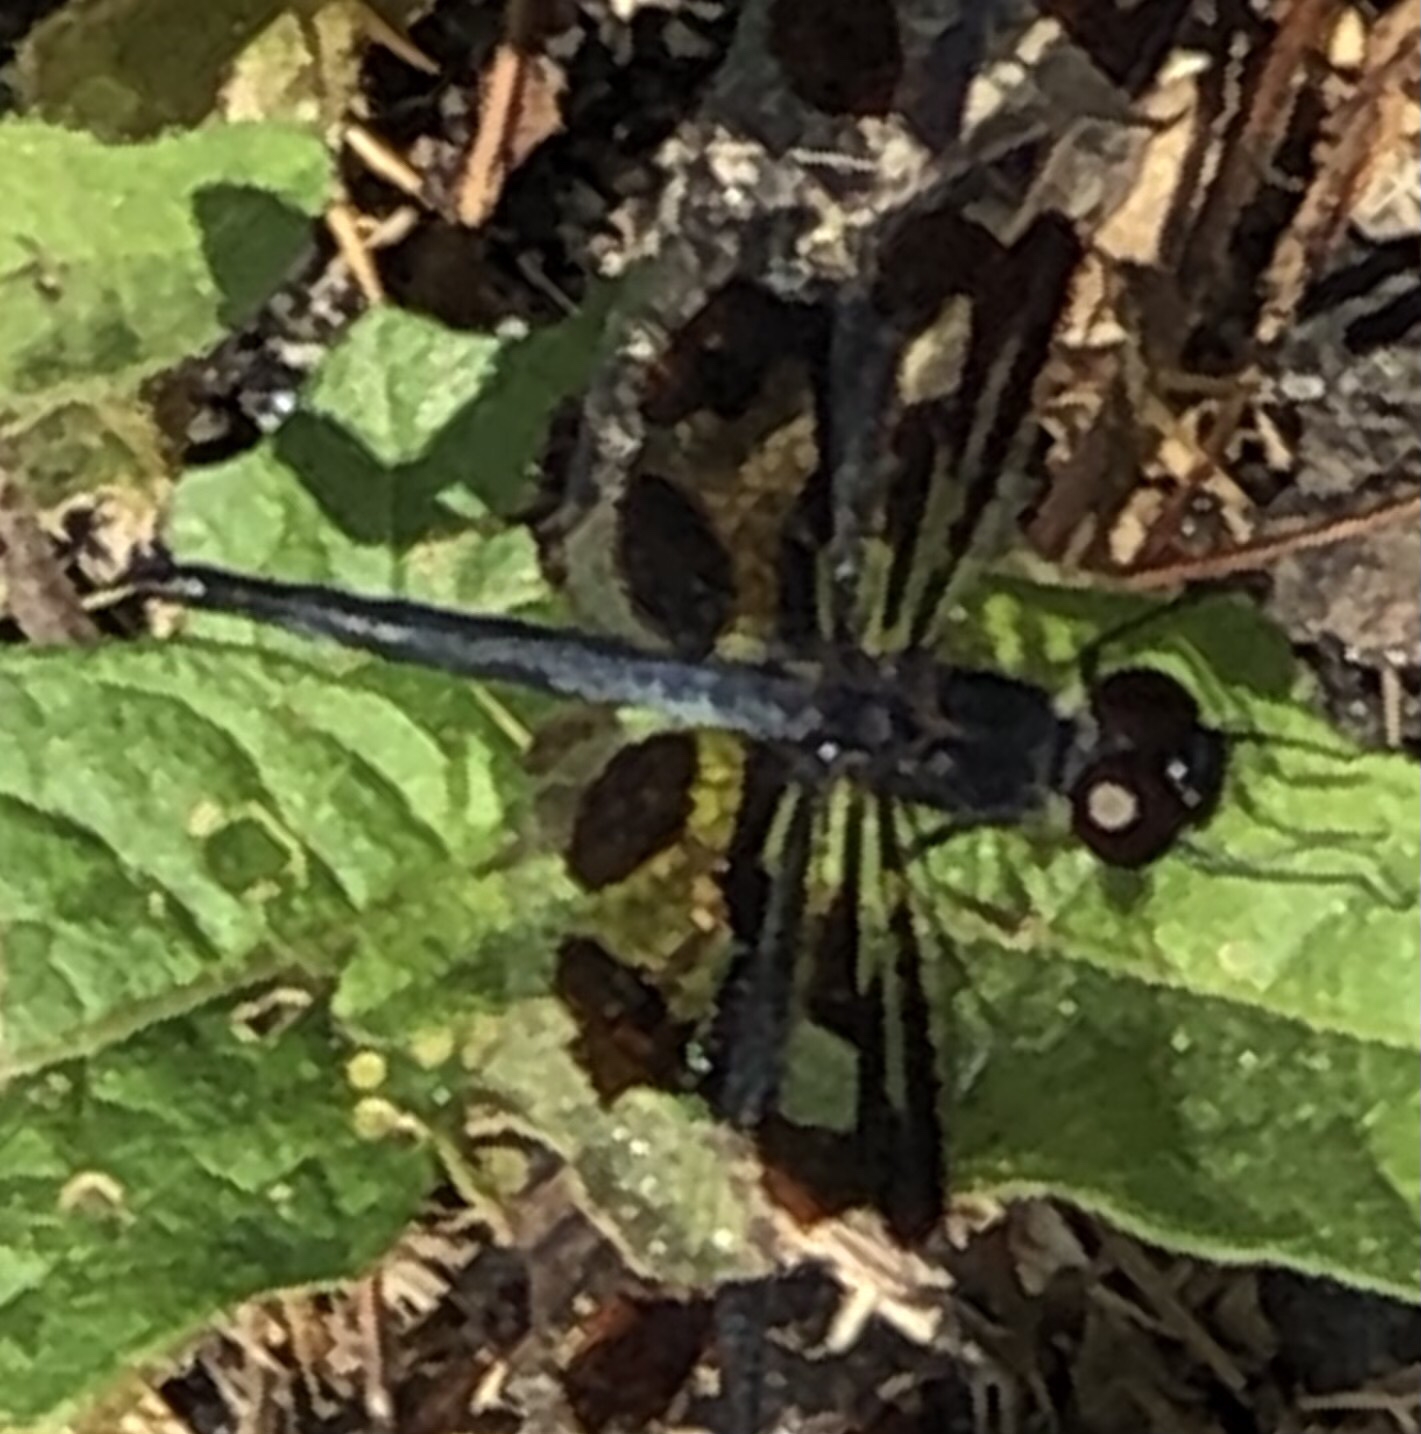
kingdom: Animalia
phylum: Arthropoda
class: Insecta
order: Odonata
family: Libellulidae
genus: Celithemis
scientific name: Celithemis fasciata
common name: Banded pennant
